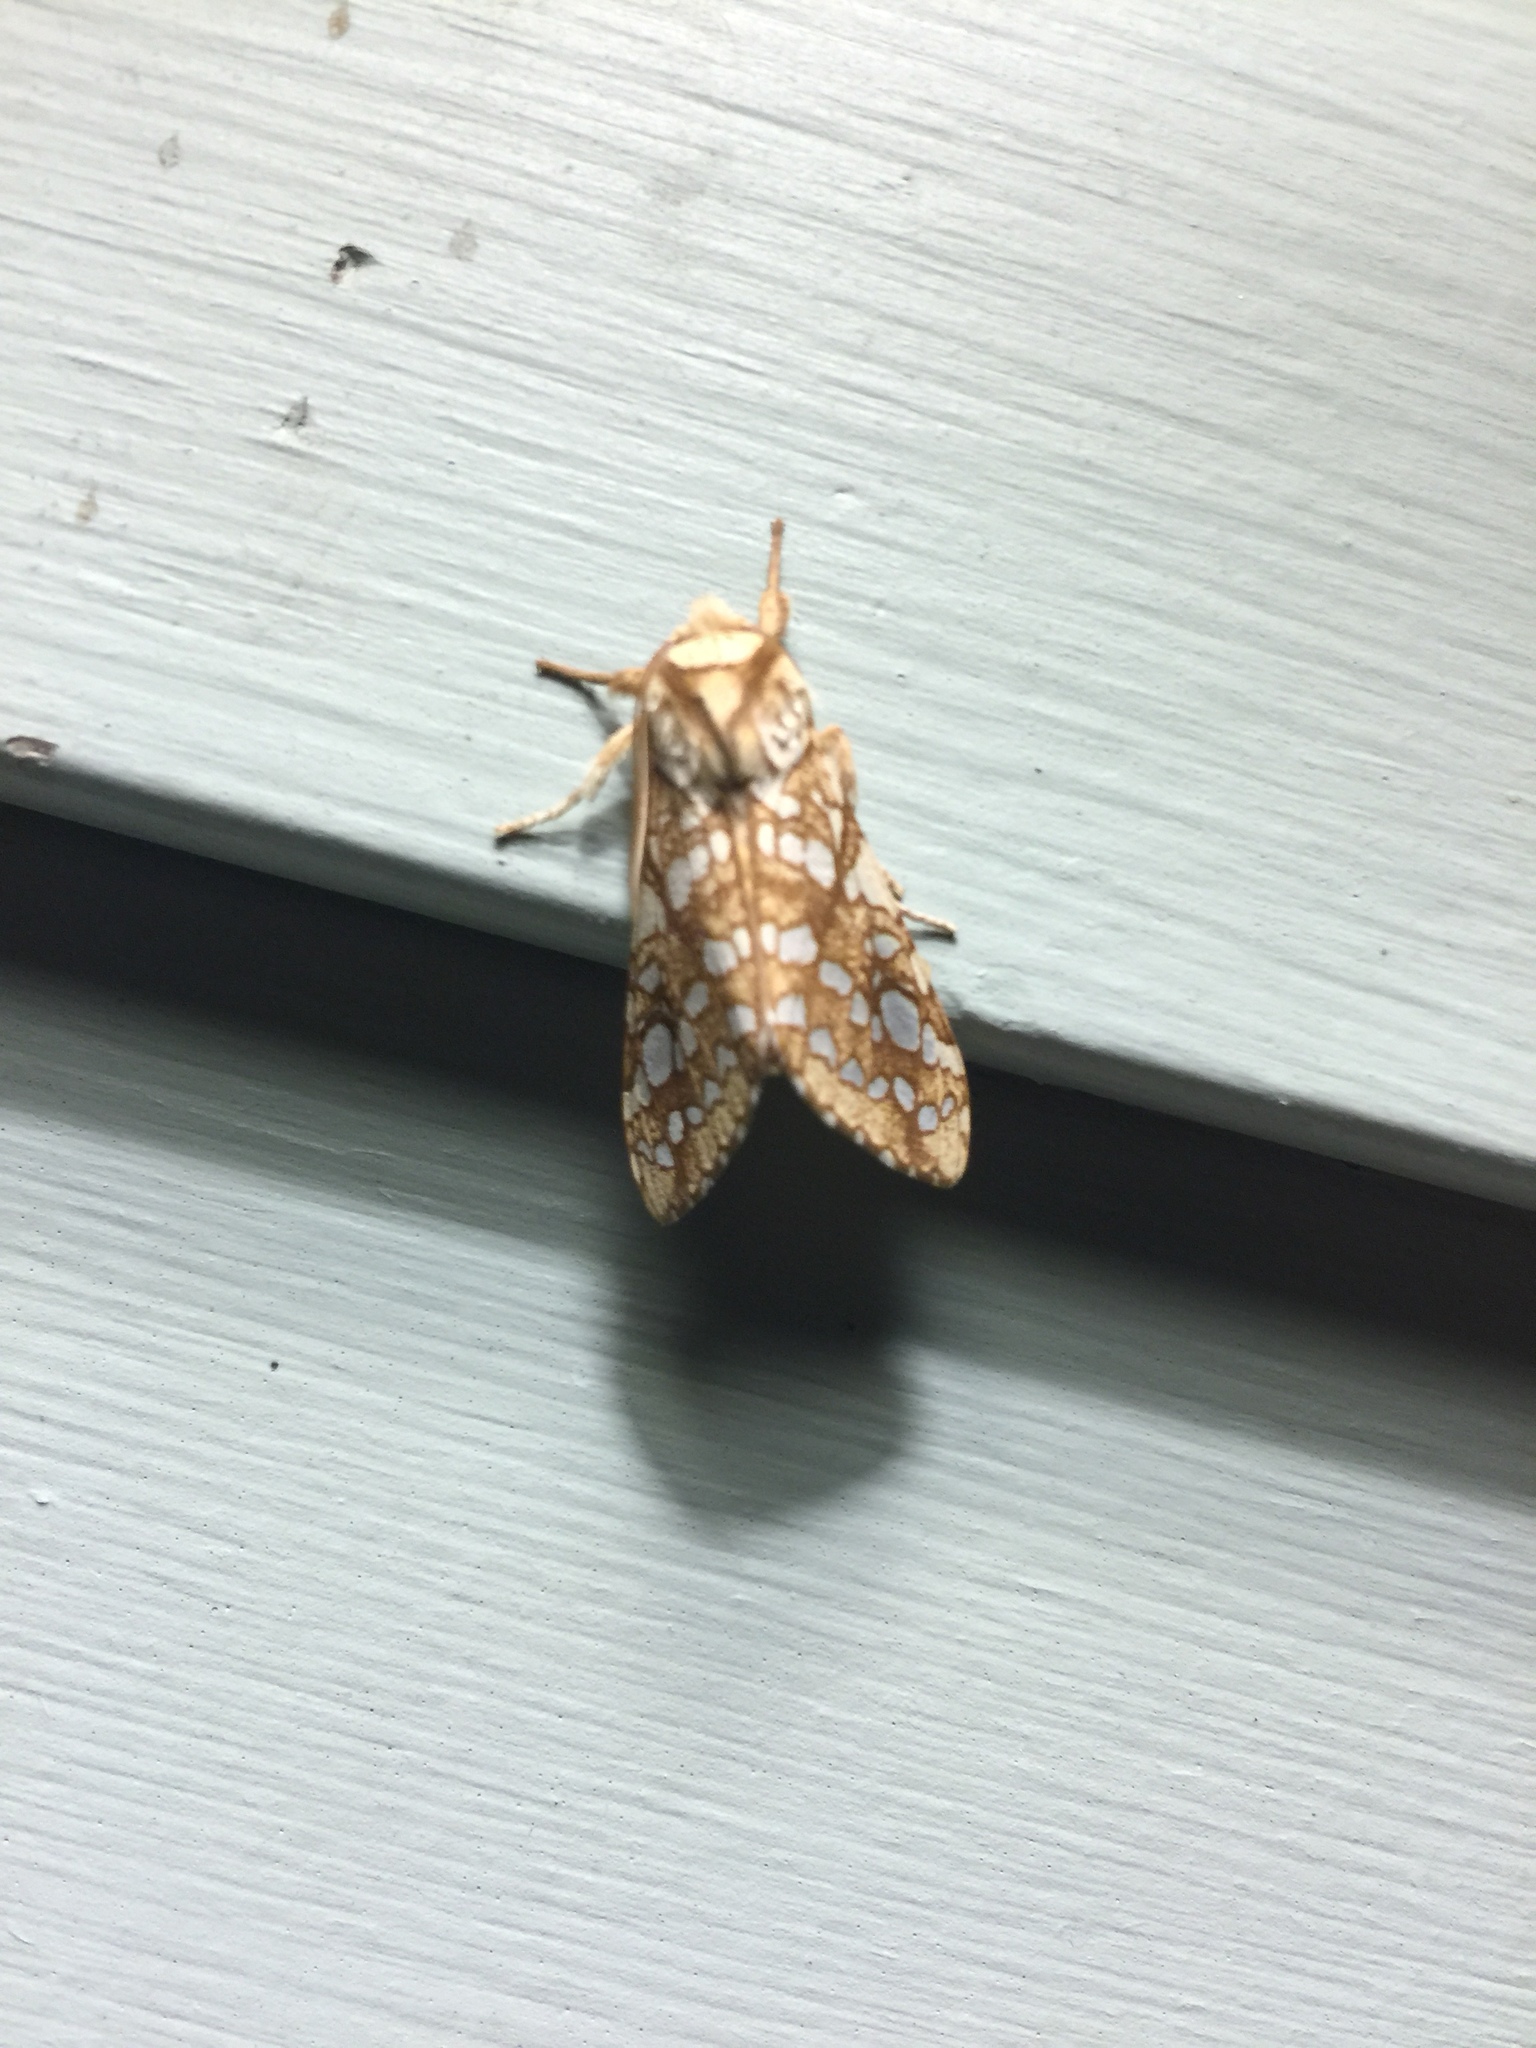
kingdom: Animalia
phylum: Arthropoda
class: Insecta
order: Lepidoptera
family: Erebidae
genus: Lophocampa
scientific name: Lophocampa caryae
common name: Hickory tussock moth
